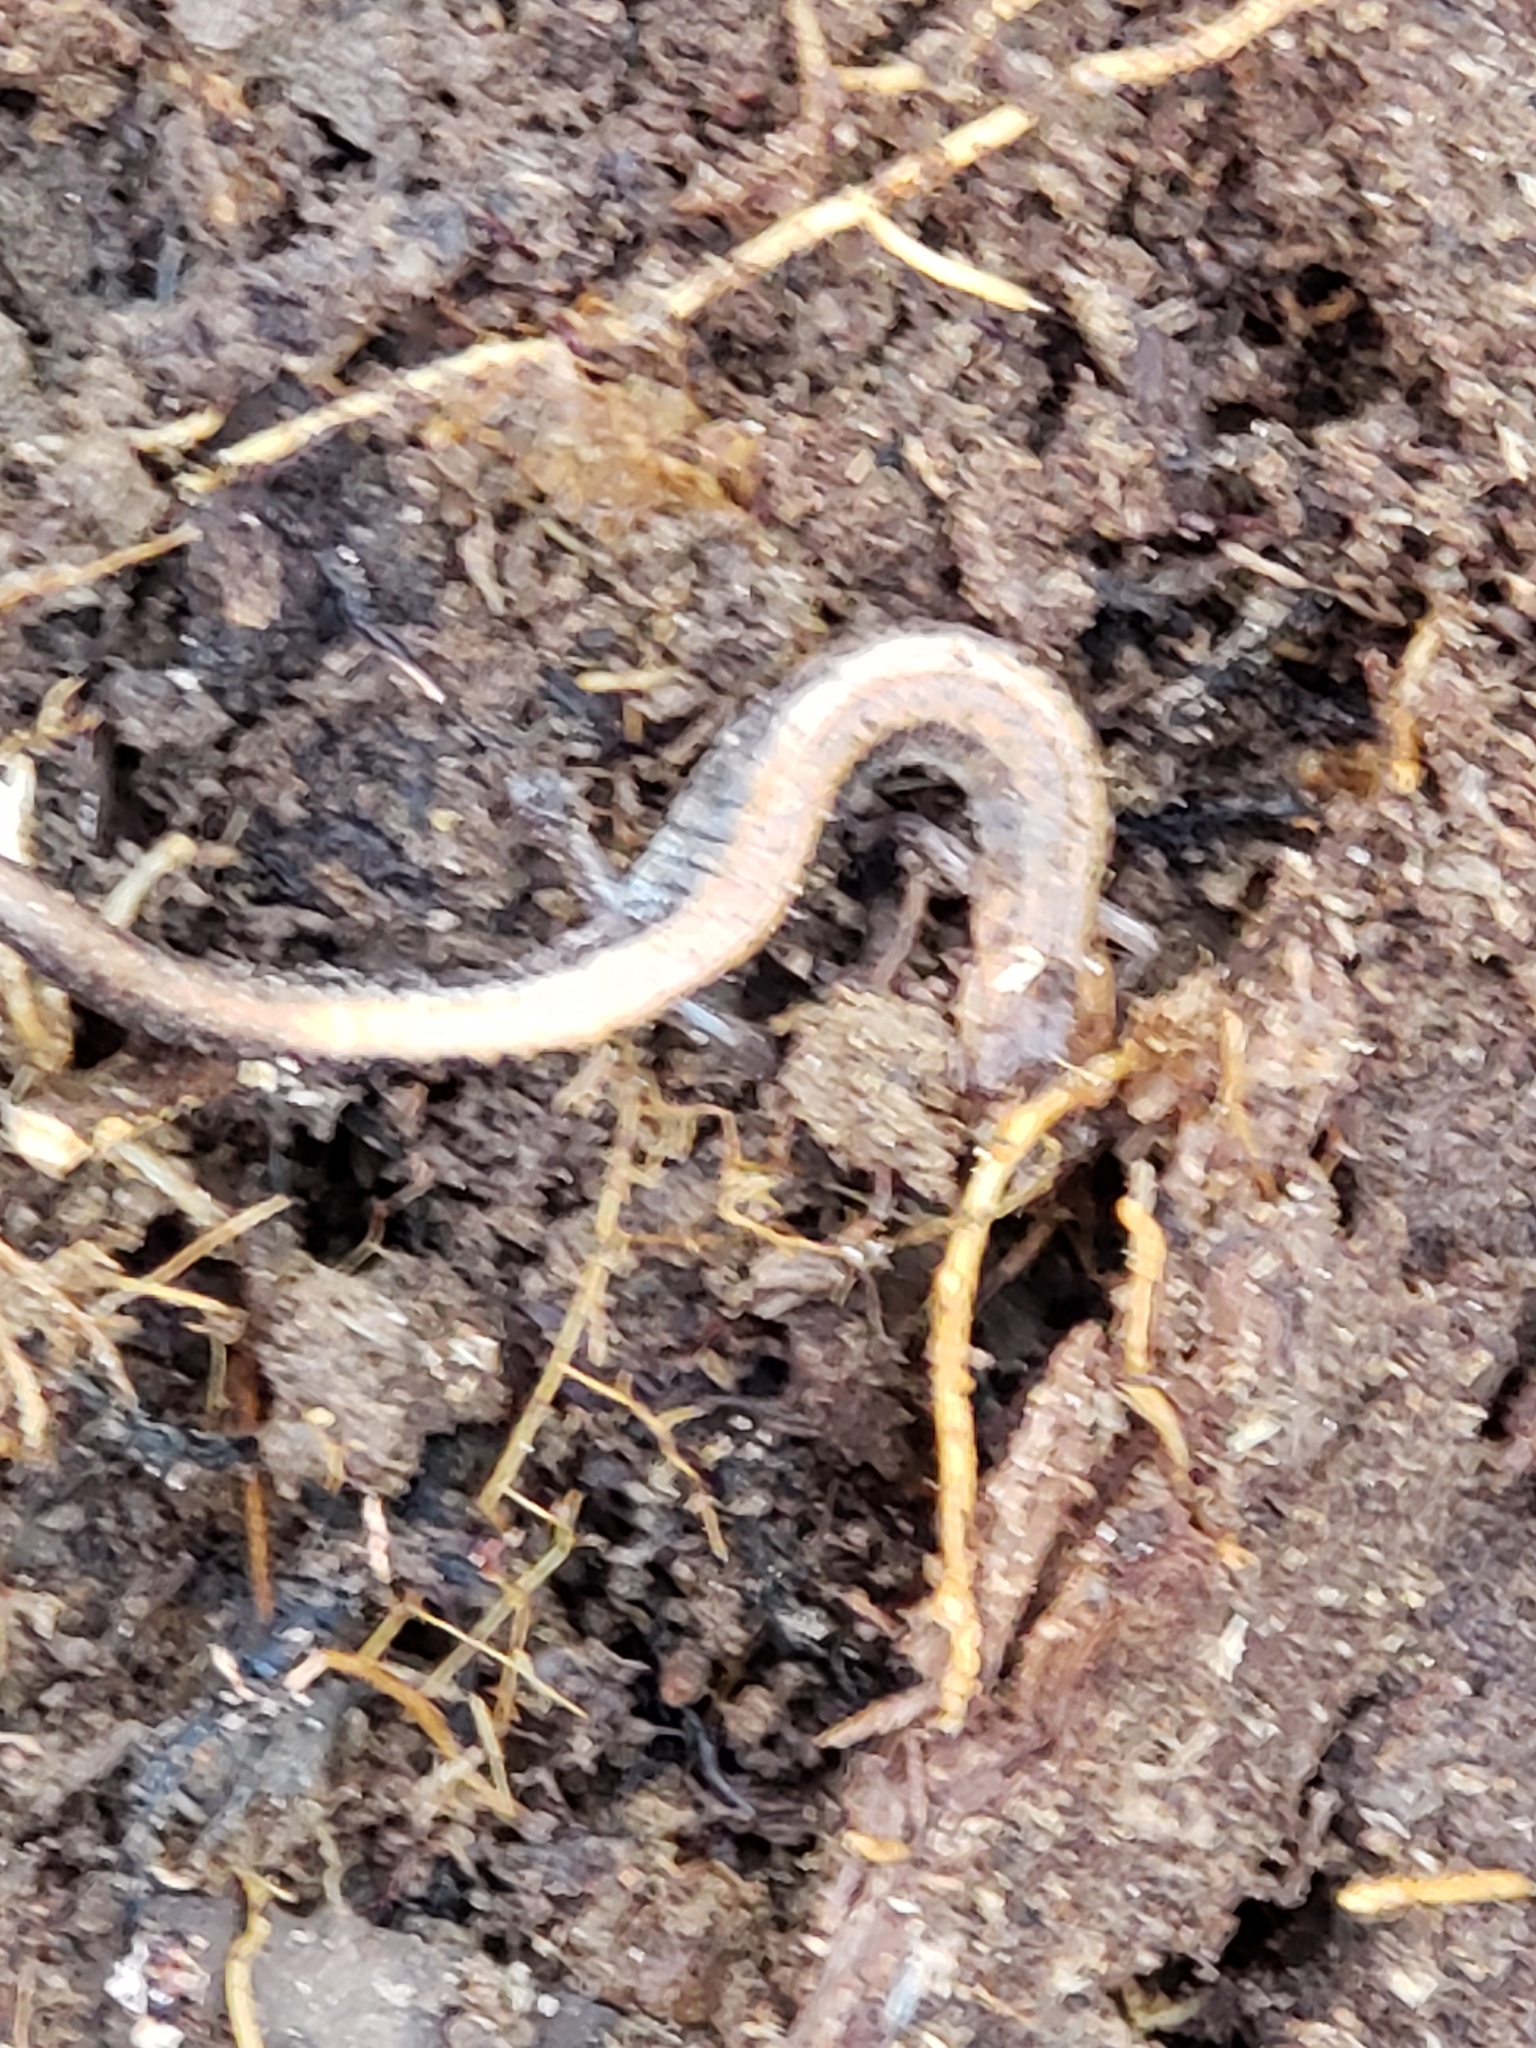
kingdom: Animalia
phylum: Chordata
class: Amphibia
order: Caudata
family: Plethodontidae
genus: Plethodon
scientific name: Plethodon cinereus
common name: Redback salamander
